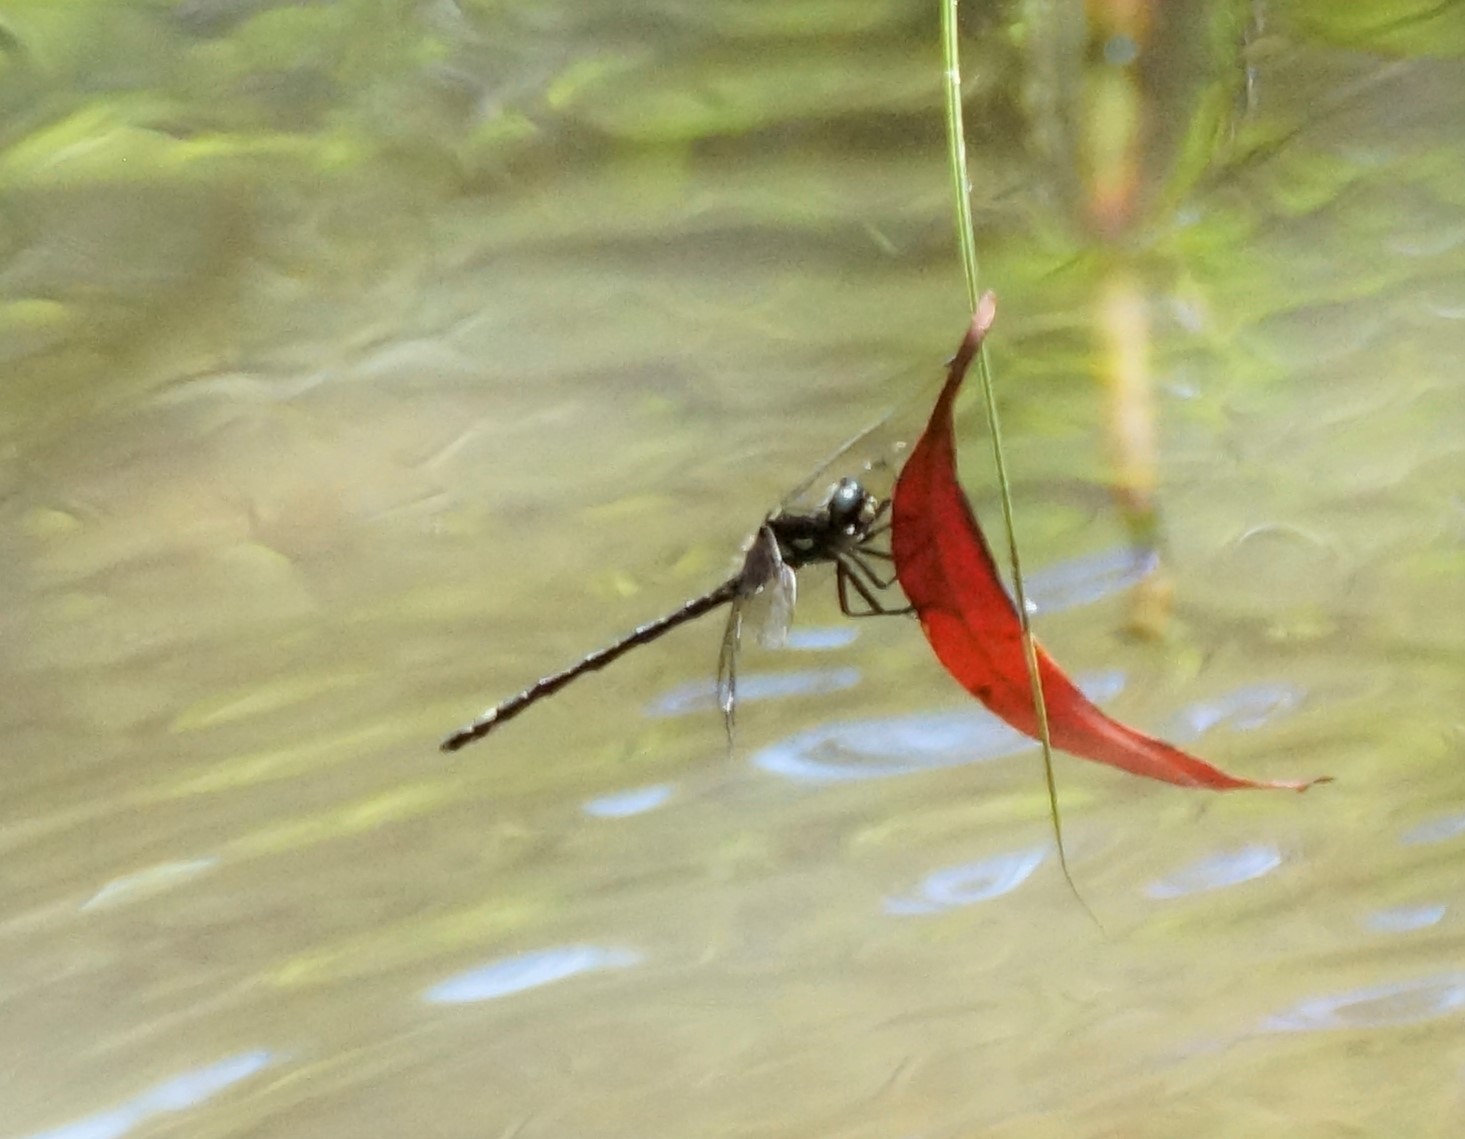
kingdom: Animalia
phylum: Arthropoda
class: Insecta
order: Odonata
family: Synthemistidae
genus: Eusynthemis
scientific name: Eusynthemis brevistyla
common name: Small tigertail
